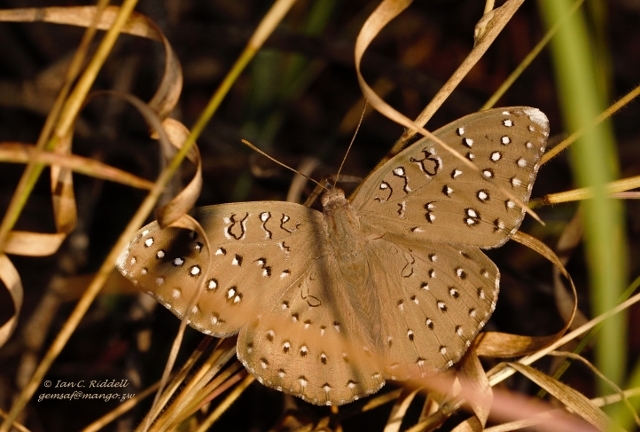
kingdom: Animalia
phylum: Arthropoda
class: Insecta
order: Lepidoptera
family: Nymphalidae
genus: Hamanumida
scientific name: Hamanumida daedalus
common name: Guinea-fowl butterfly
